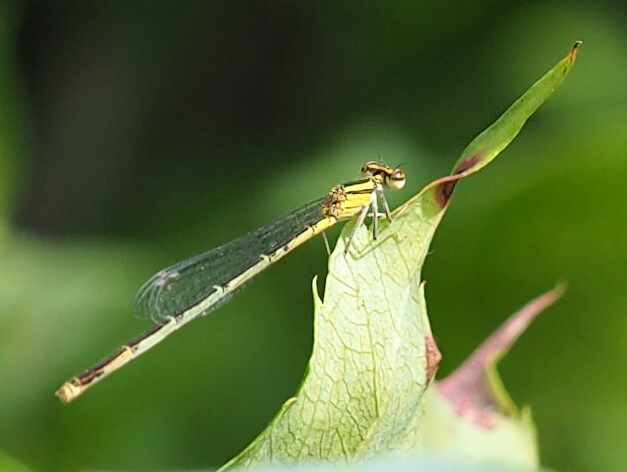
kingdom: Animalia
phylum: Arthropoda
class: Insecta
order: Odonata
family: Coenagrionidae
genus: Enallagma
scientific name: Enallagma signatum
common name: Orange bluet
